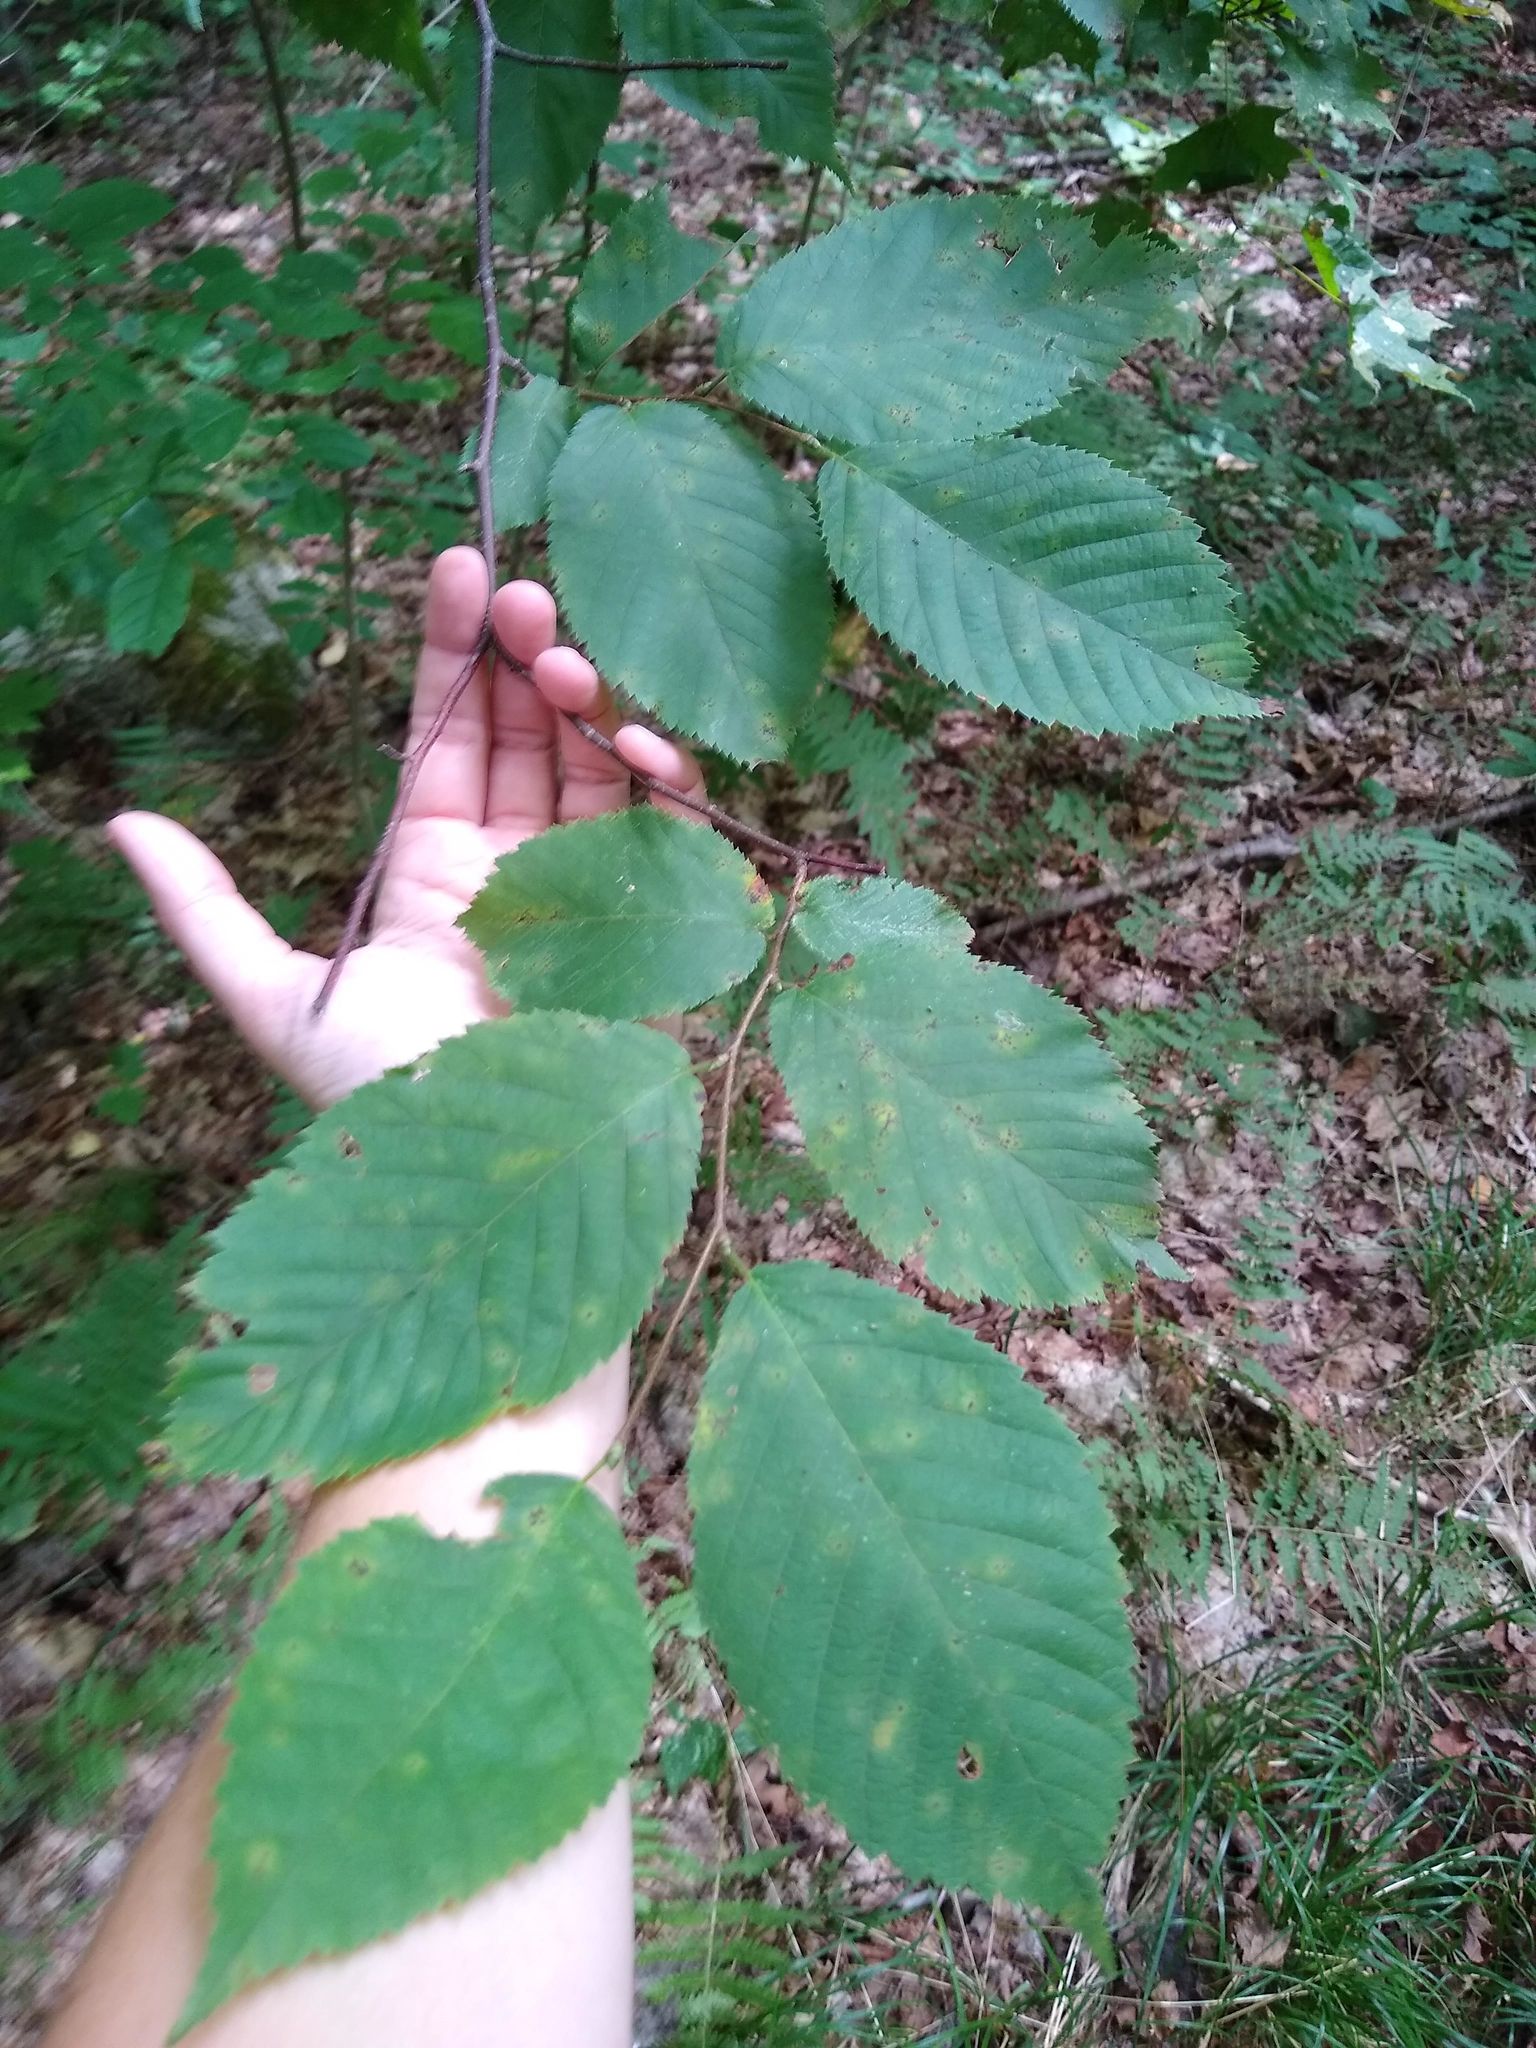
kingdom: Plantae
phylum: Tracheophyta
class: Magnoliopsida
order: Fagales
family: Betulaceae
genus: Ostrya
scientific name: Ostrya virginiana
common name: Ironwood
